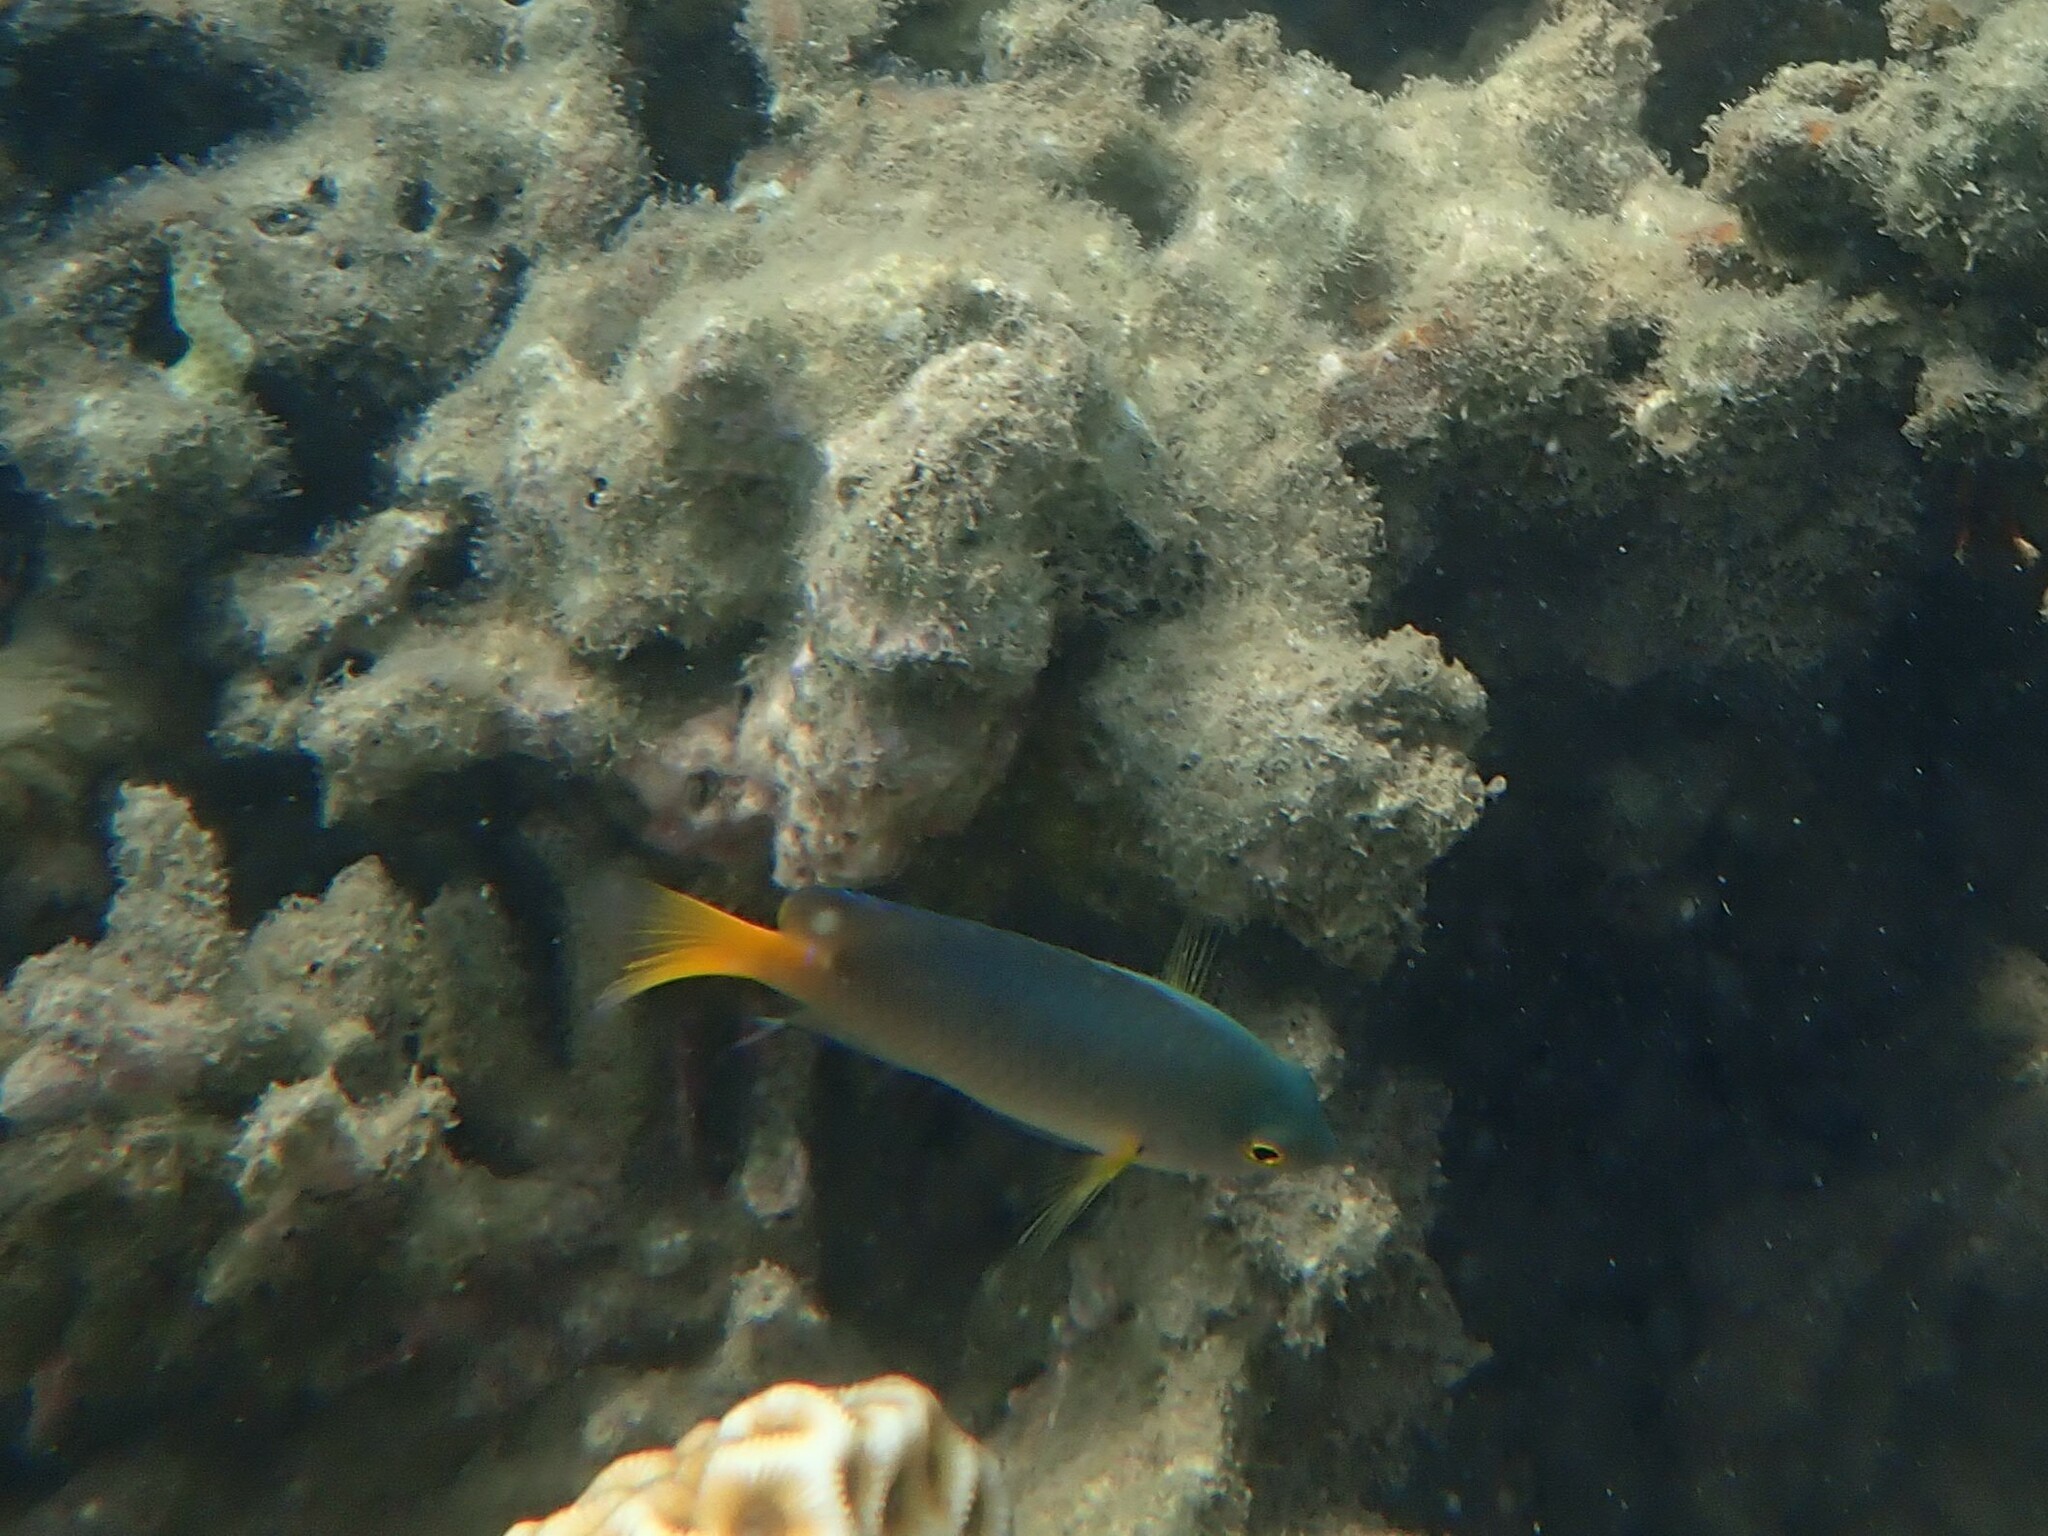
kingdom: Animalia
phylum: Chordata
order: Perciformes
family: Pomacentridae
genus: Pomacentrus
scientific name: Pomacentrus maafu
